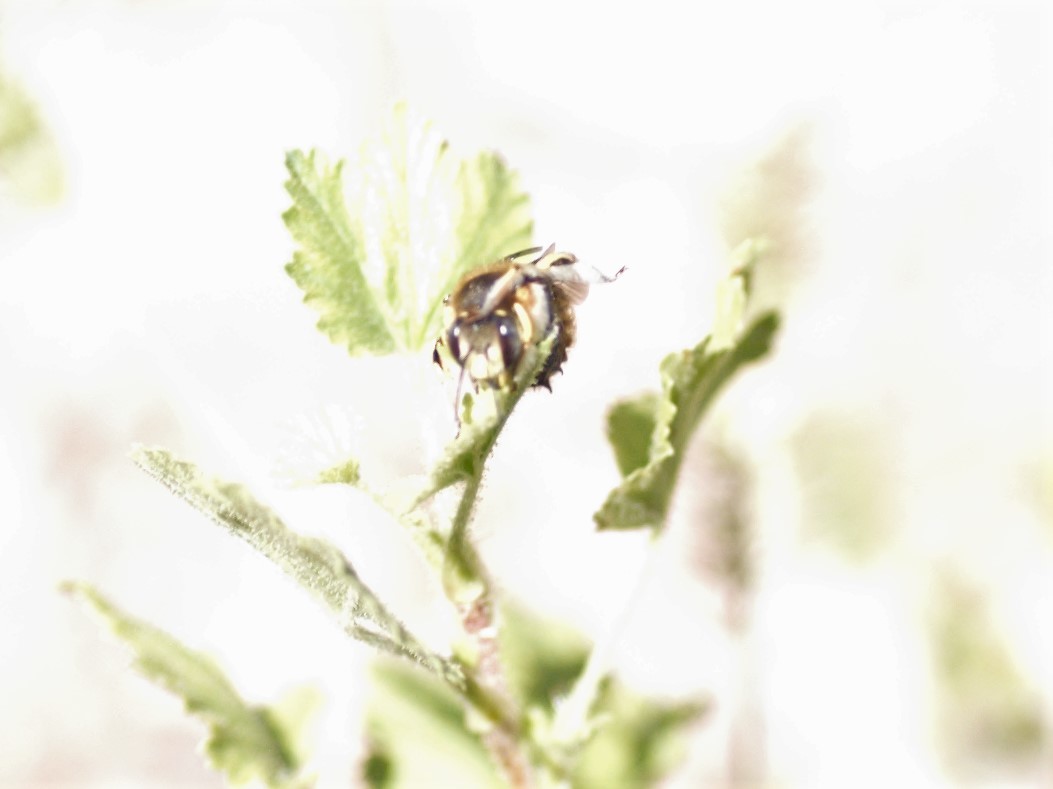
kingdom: Animalia
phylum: Arthropoda
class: Insecta
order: Hymenoptera
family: Megachilidae
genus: Anthidium
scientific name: Anthidium
